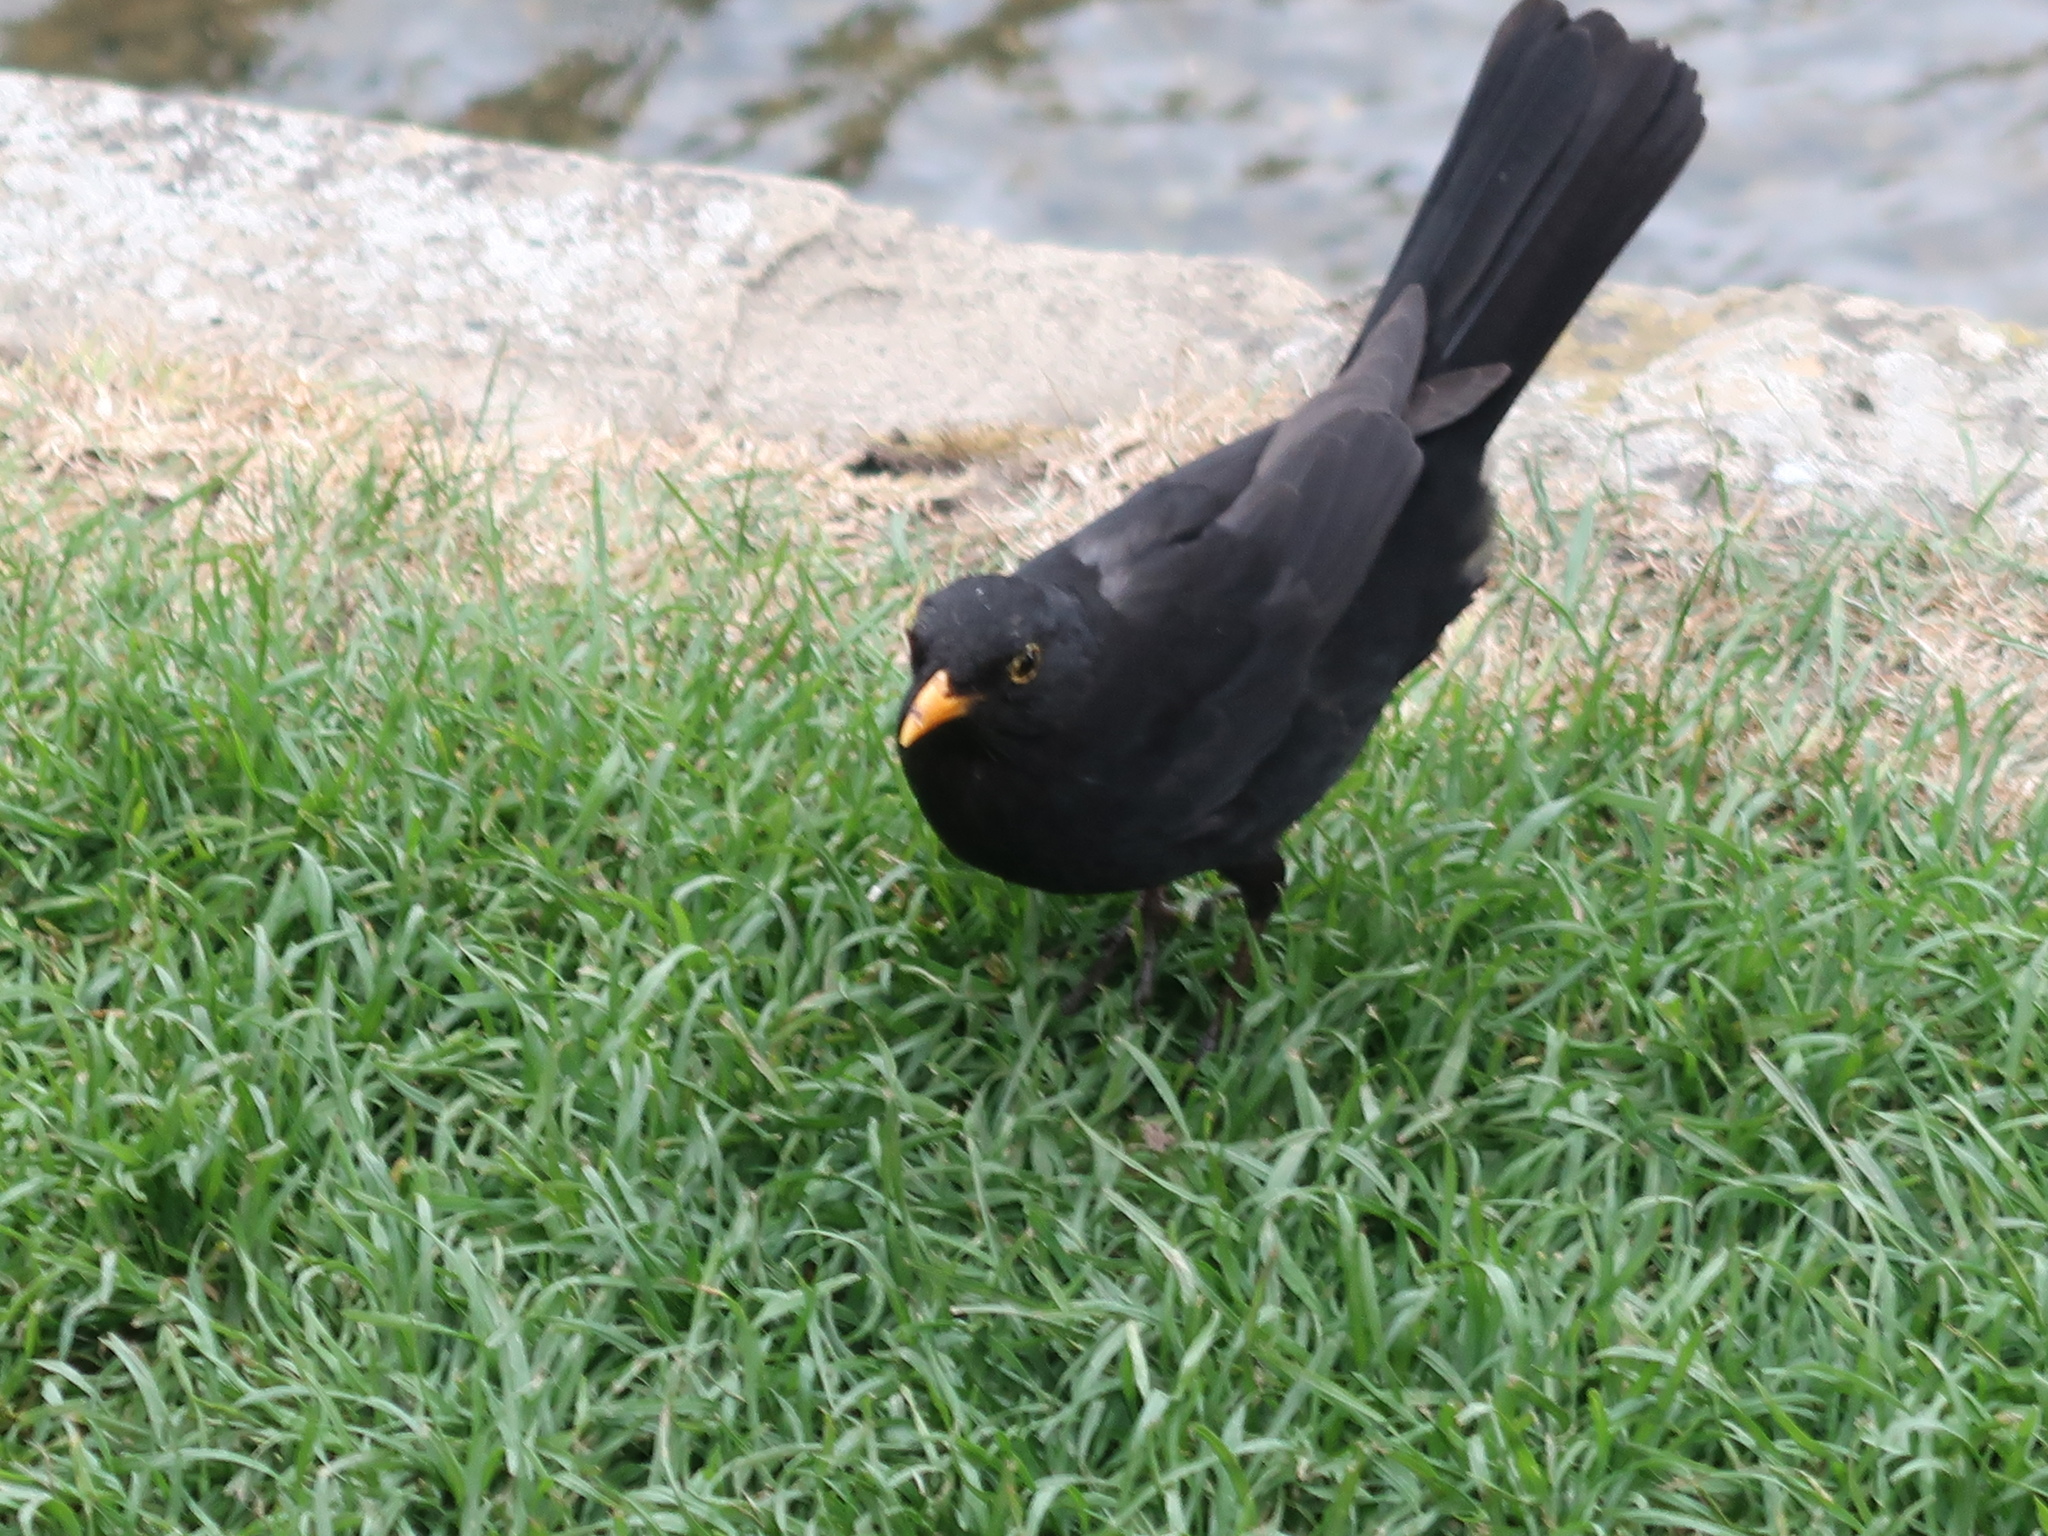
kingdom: Animalia
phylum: Chordata
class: Aves
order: Passeriformes
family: Turdidae
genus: Turdus
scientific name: Turdus merula
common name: Common blackbird
